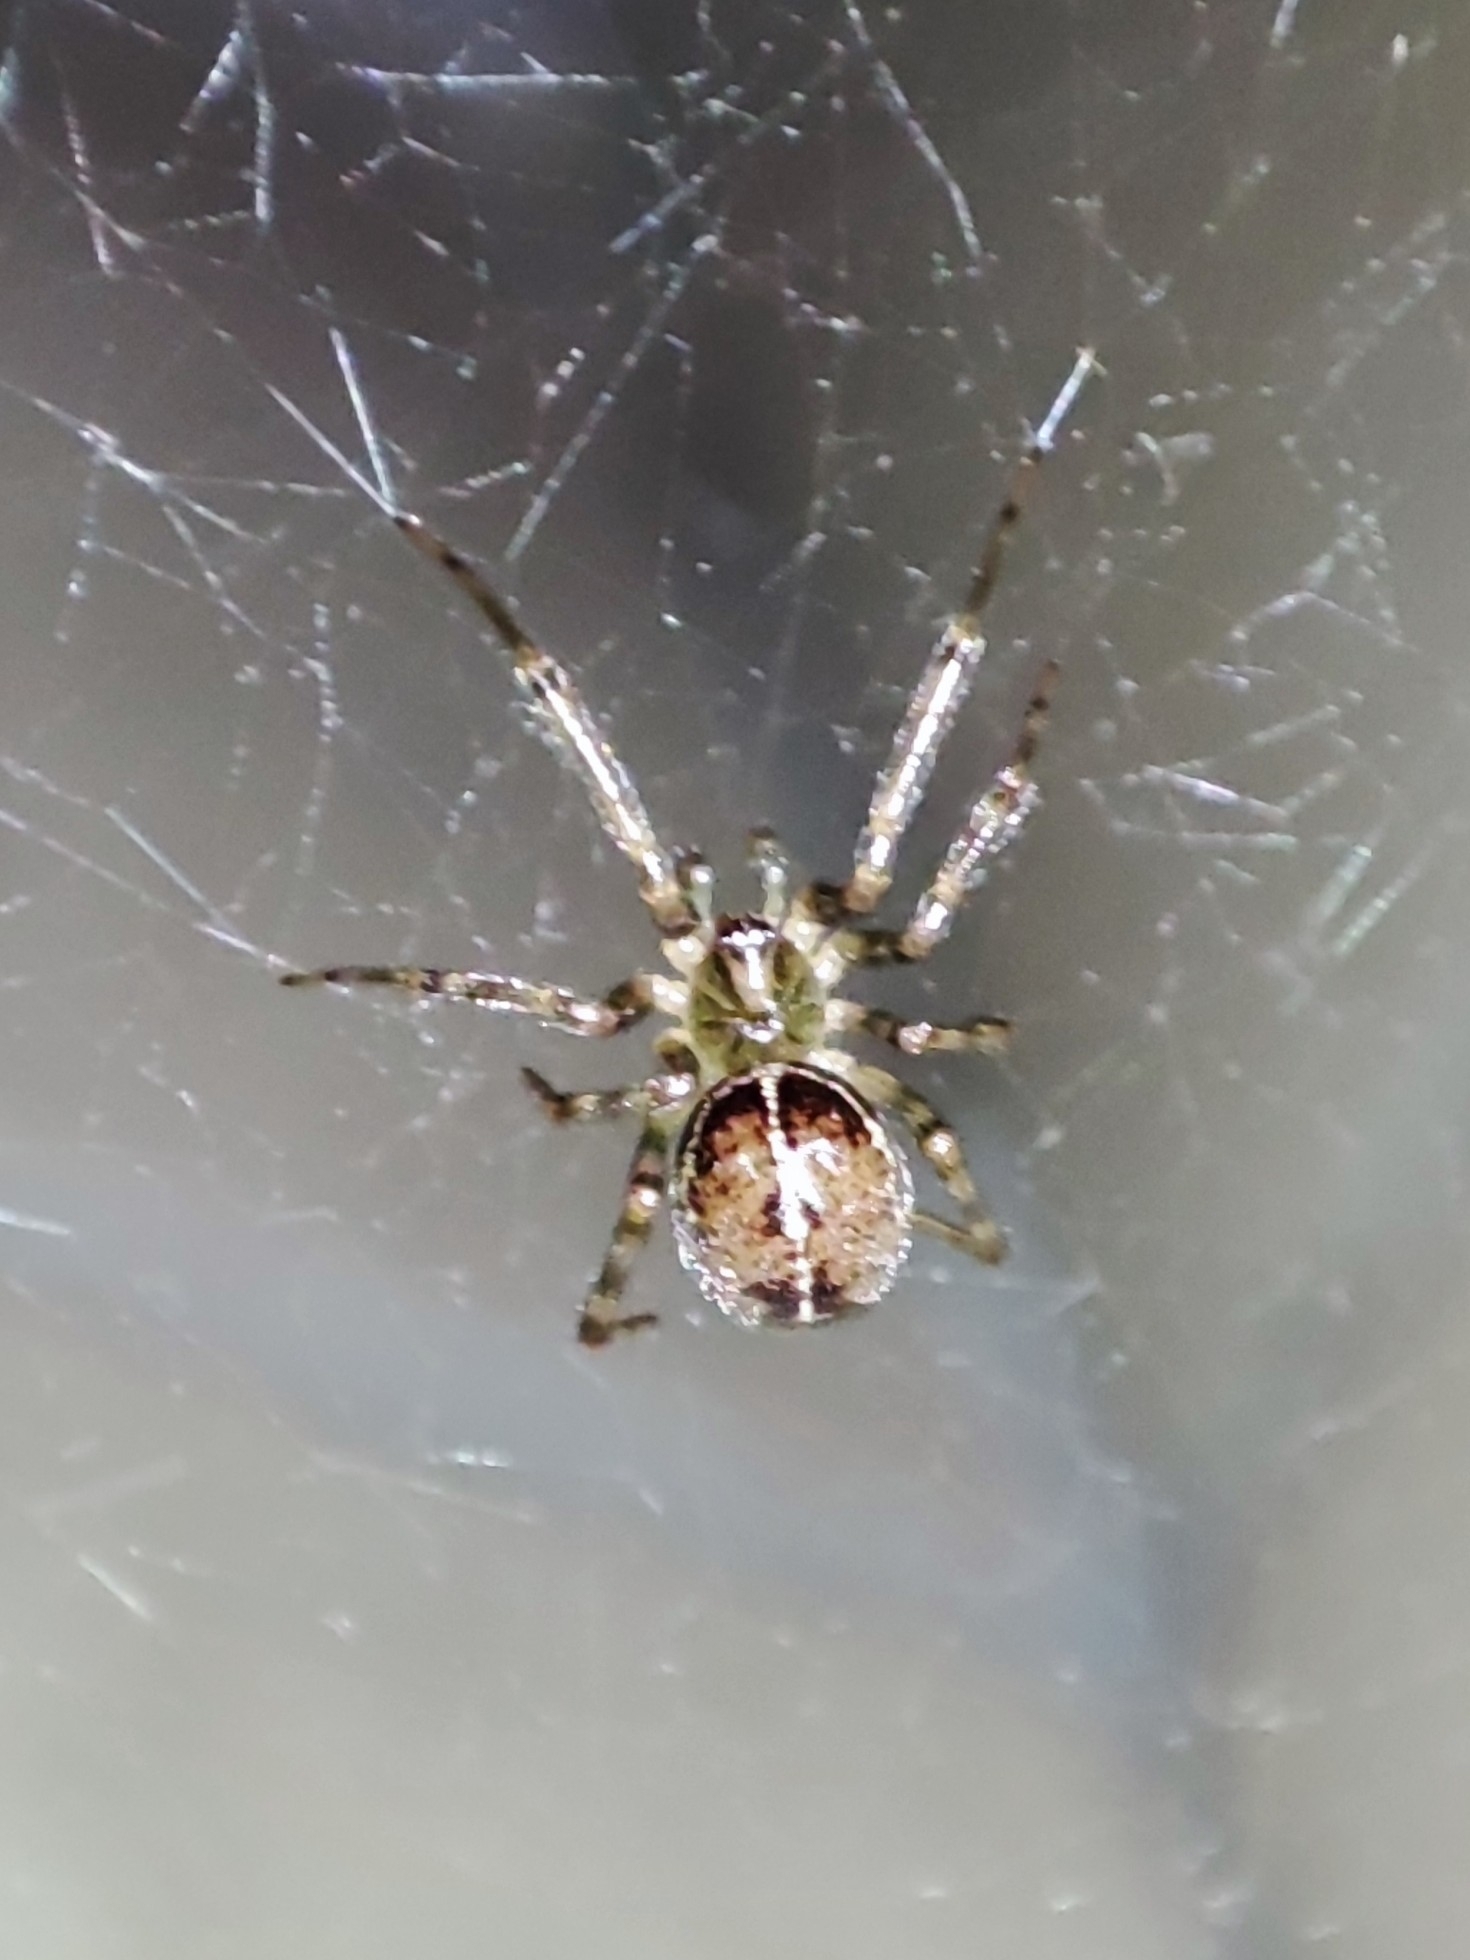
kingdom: Animalia
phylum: Arthropoda
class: Arachnida
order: Araneae
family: Theridiidae
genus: Steatoda
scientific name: Steatoda castanea
